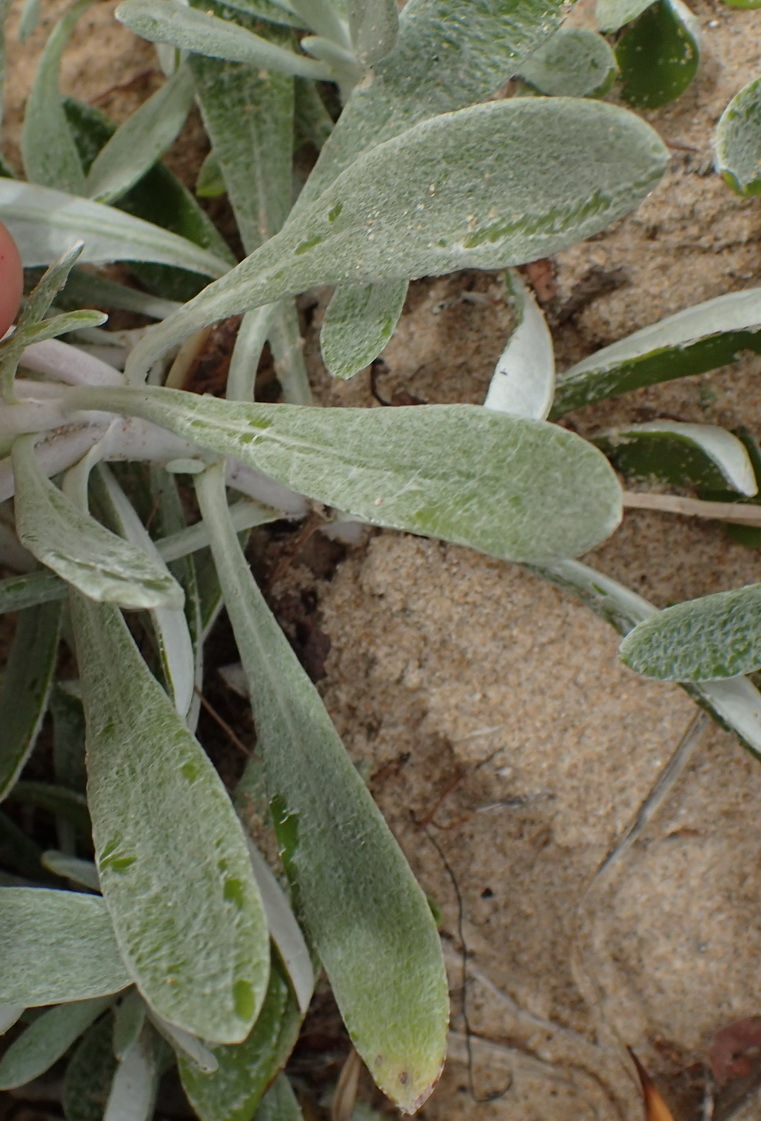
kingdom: Plantae
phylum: Tracheophyta
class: Magnoliopsida
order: Asterales
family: Asteraceae
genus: Gazania
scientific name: Gazania rigens
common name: Treasureflower
